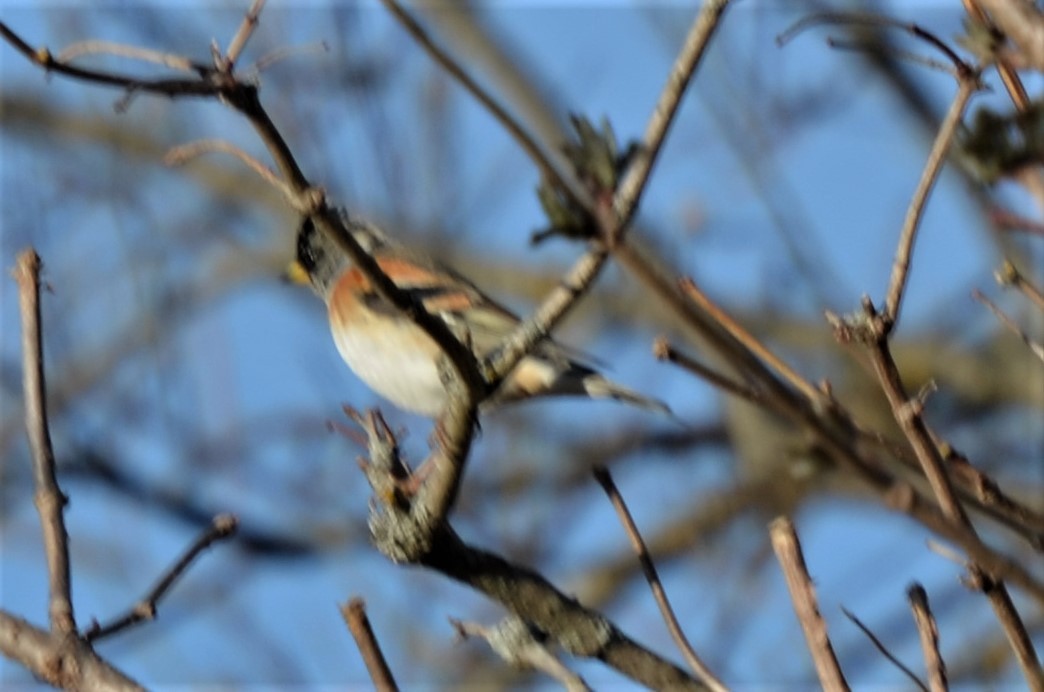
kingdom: Animalia
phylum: Chordata
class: Aves
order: Passeriformes
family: Fringillidae
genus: Fringilla
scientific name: Fringilla montifringilla
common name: Brambling
